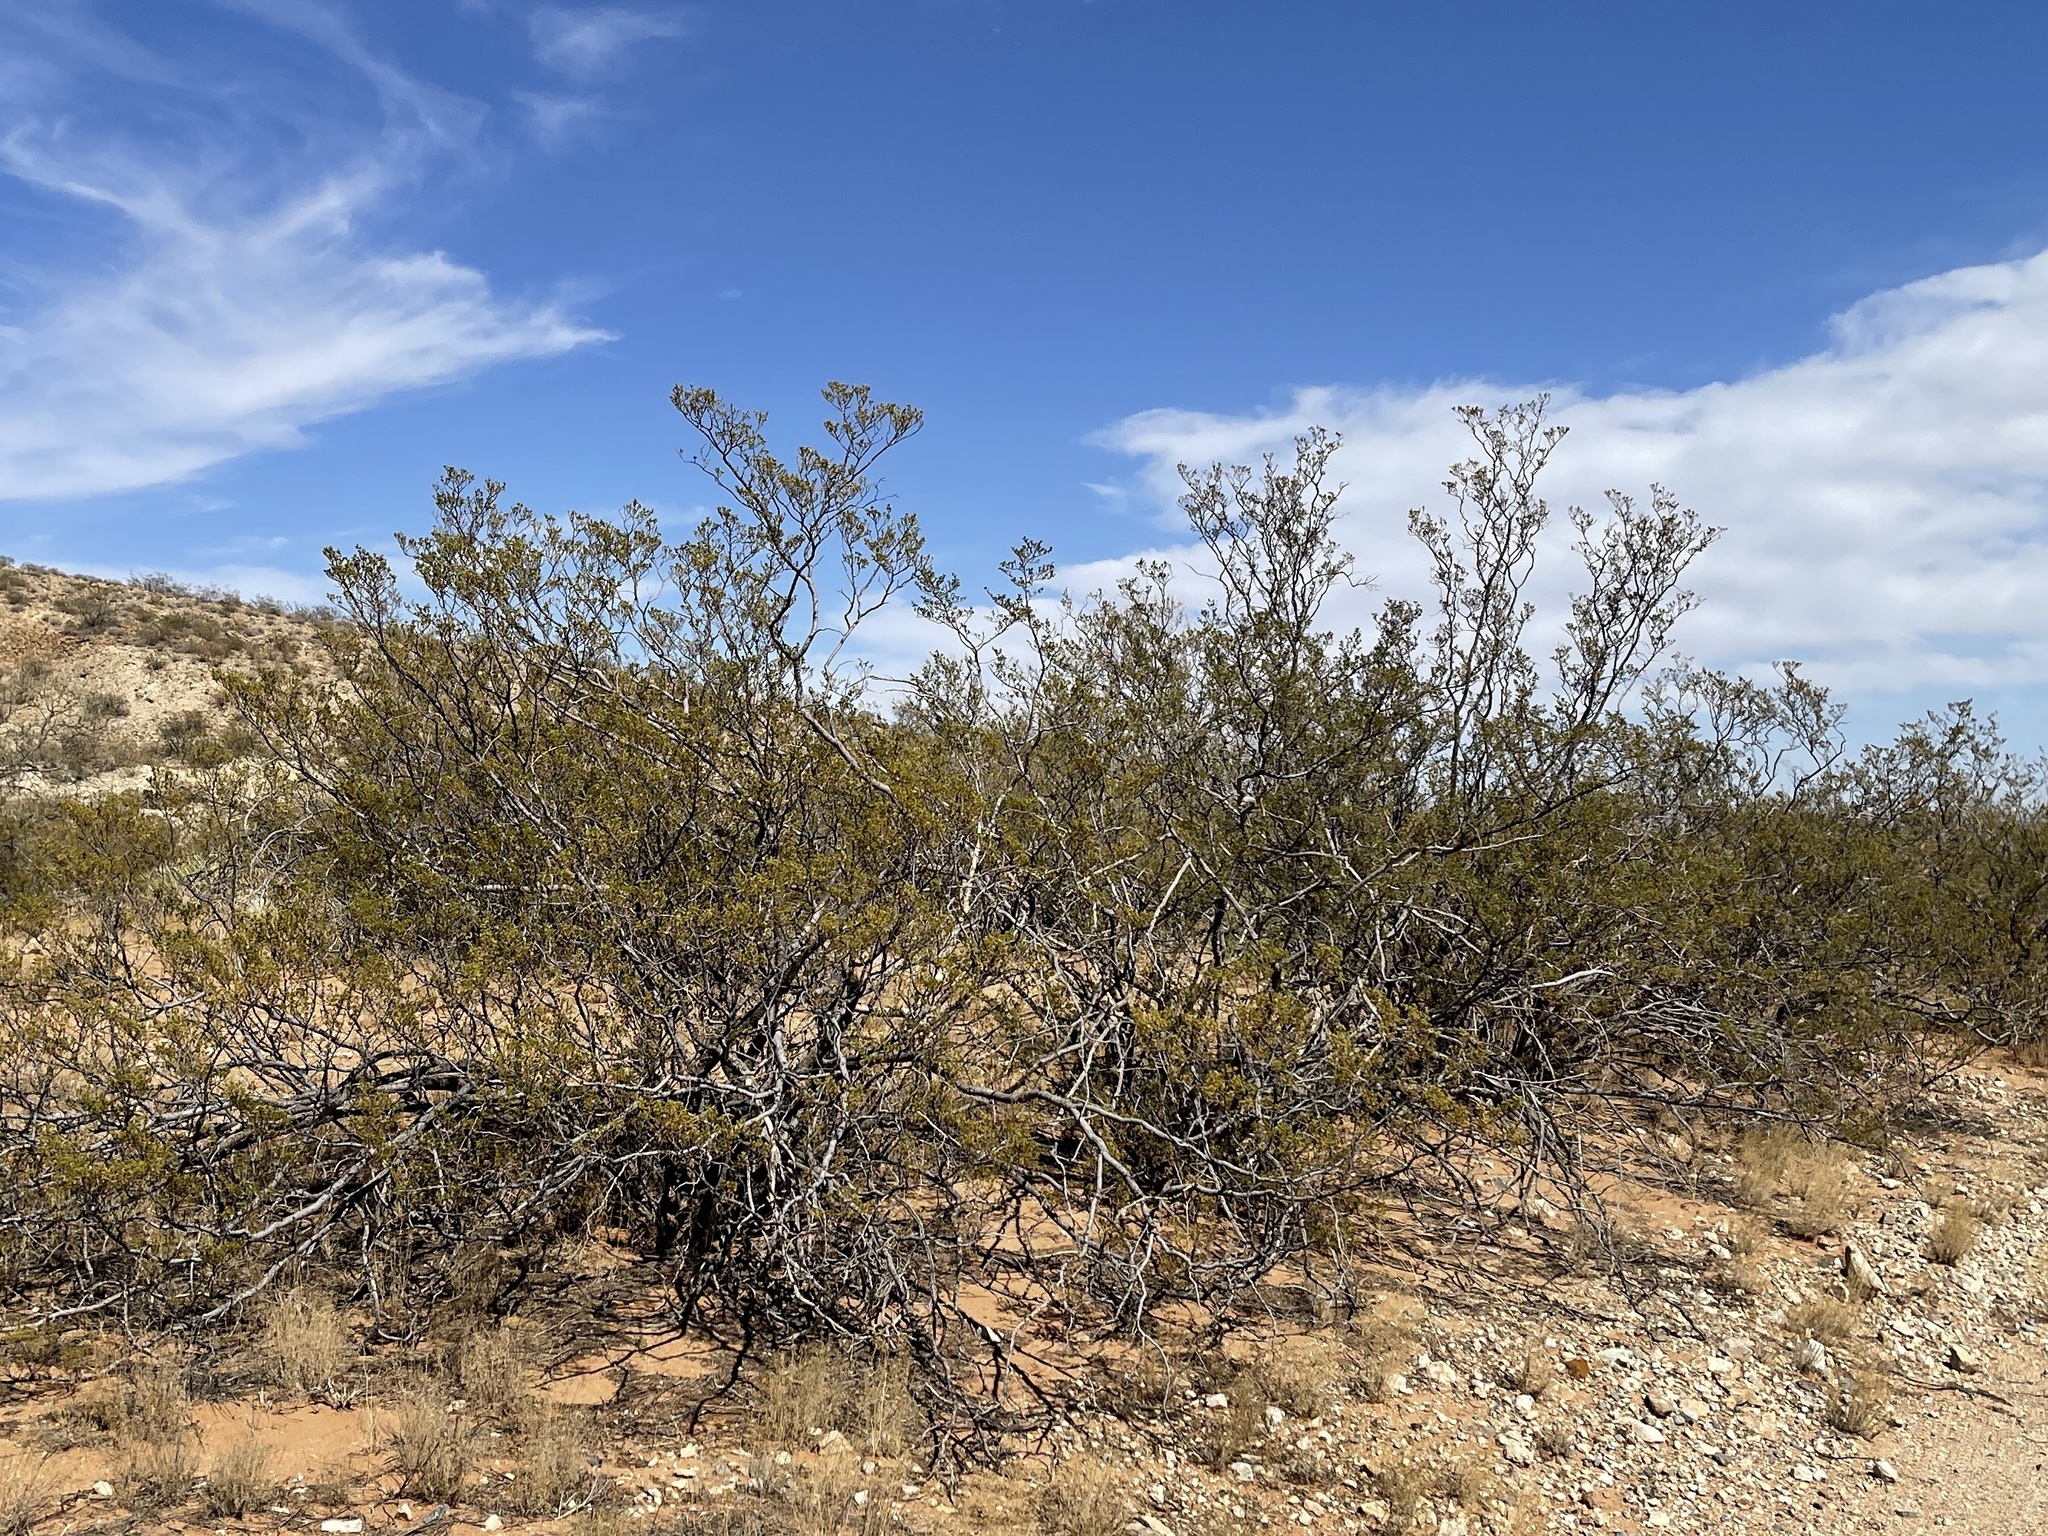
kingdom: Plantae
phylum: Tracheophyta
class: Magnoliopsida
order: Zygophyllales
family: Zygophyllaceae
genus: Larrea
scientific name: Larrea tridentata
